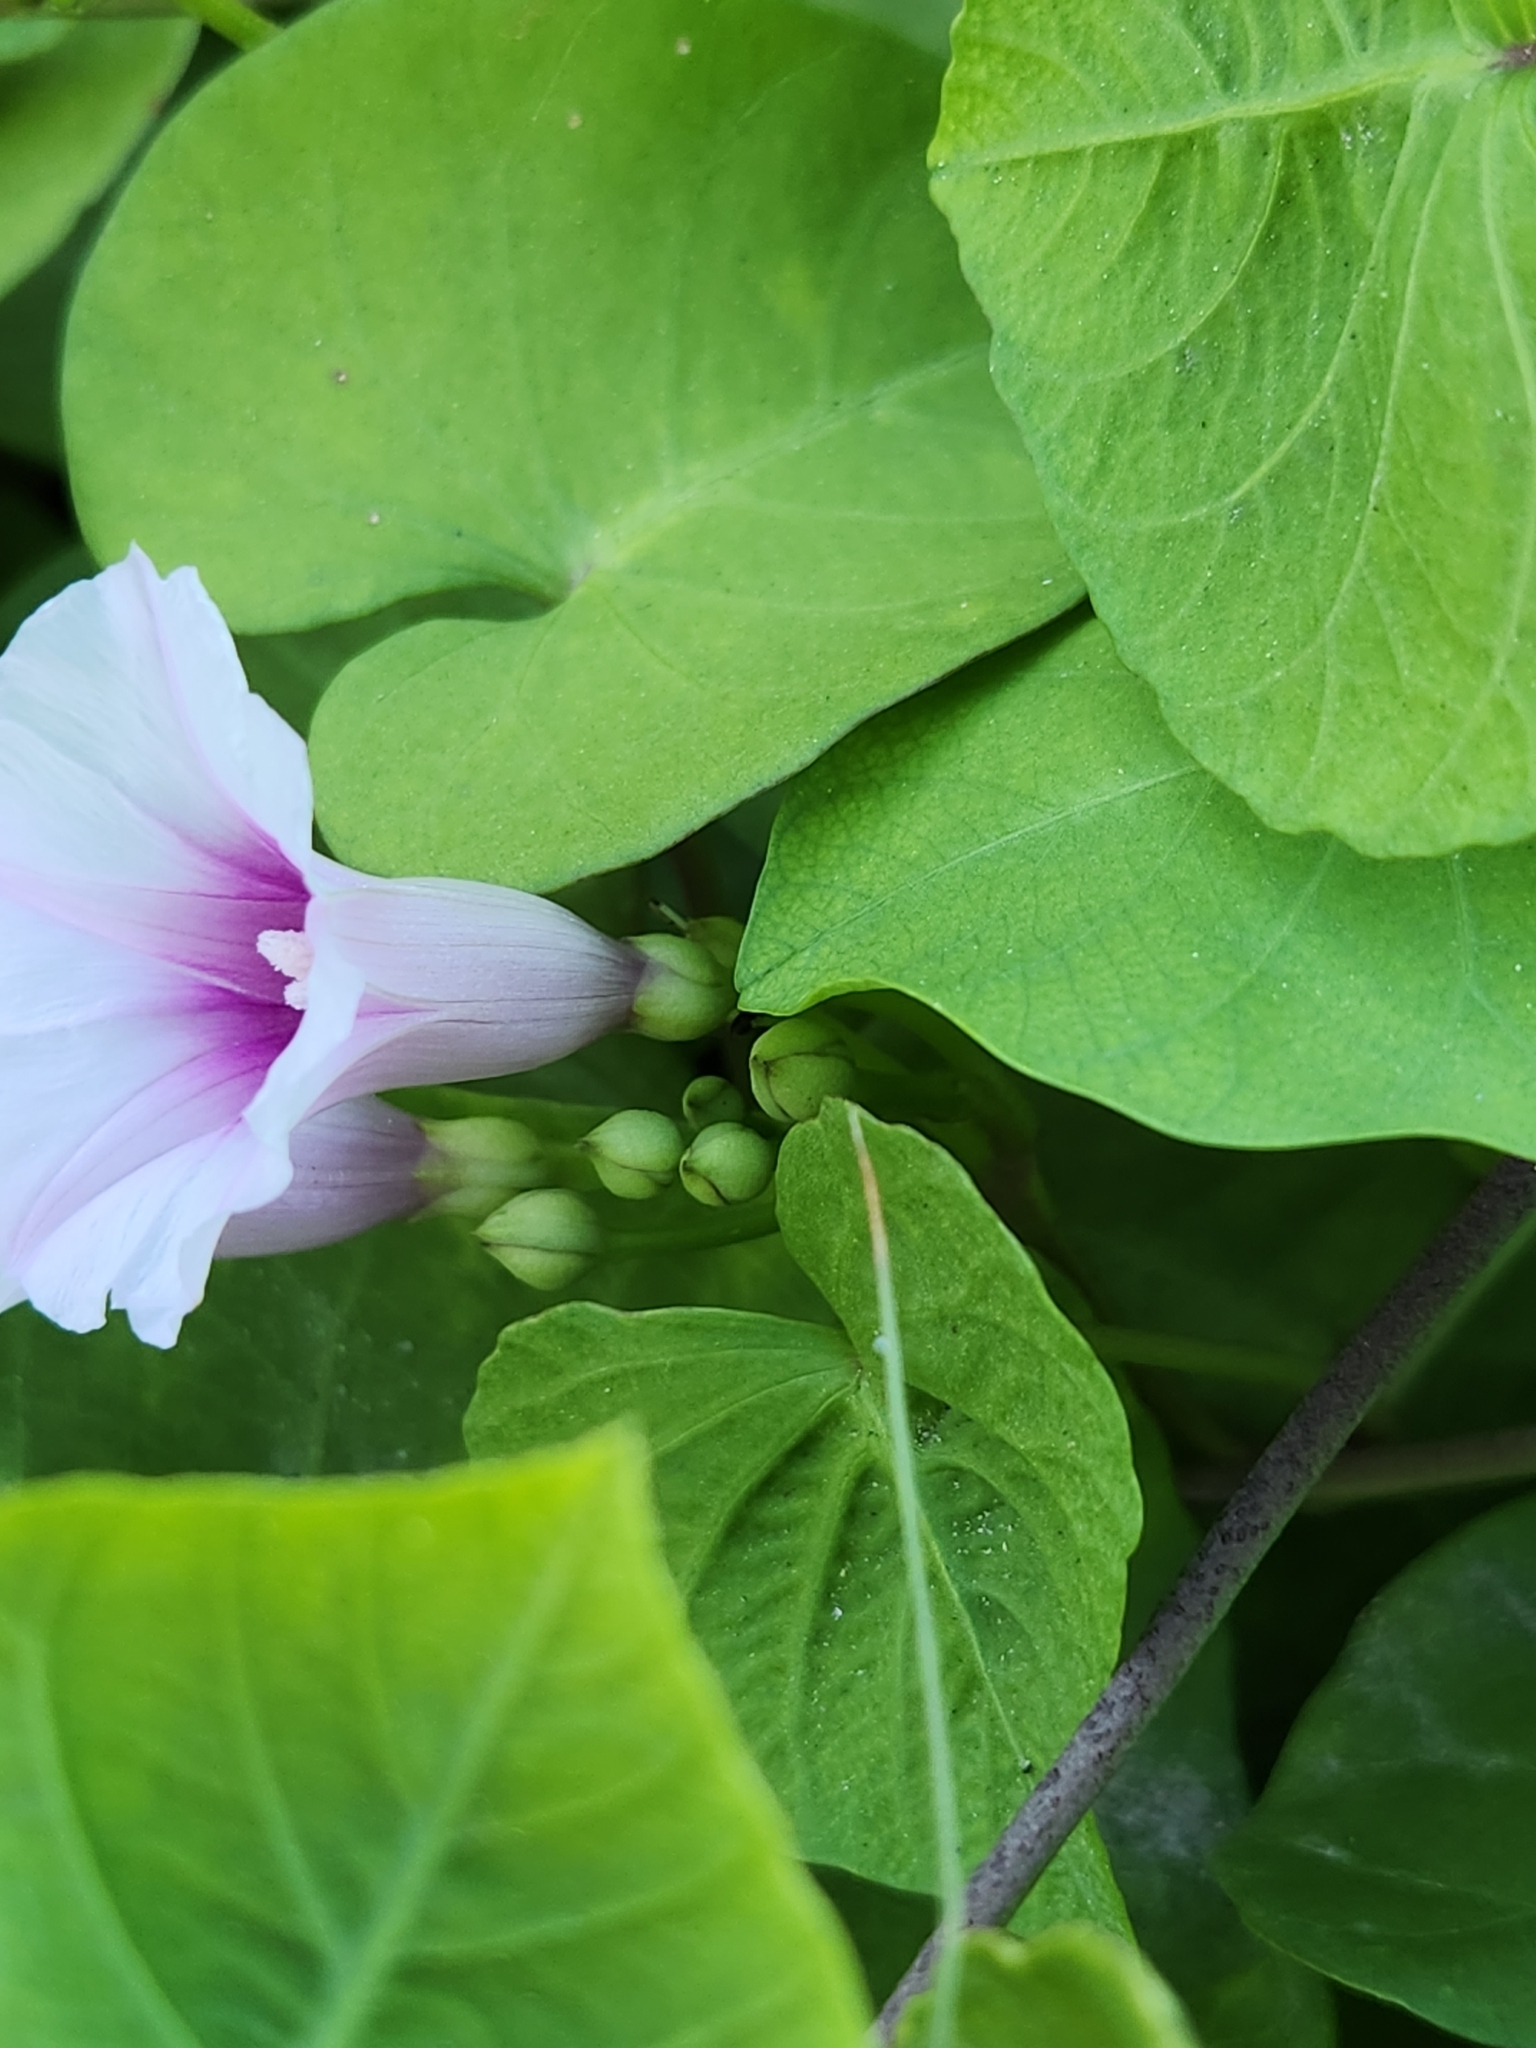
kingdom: Plantae
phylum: Tracheophyta
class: Magnoliopsida
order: Solanales
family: Convolvulaceae
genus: Ipomoea
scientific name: Ipomoea amnicola
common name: Redcenter morning-glory
